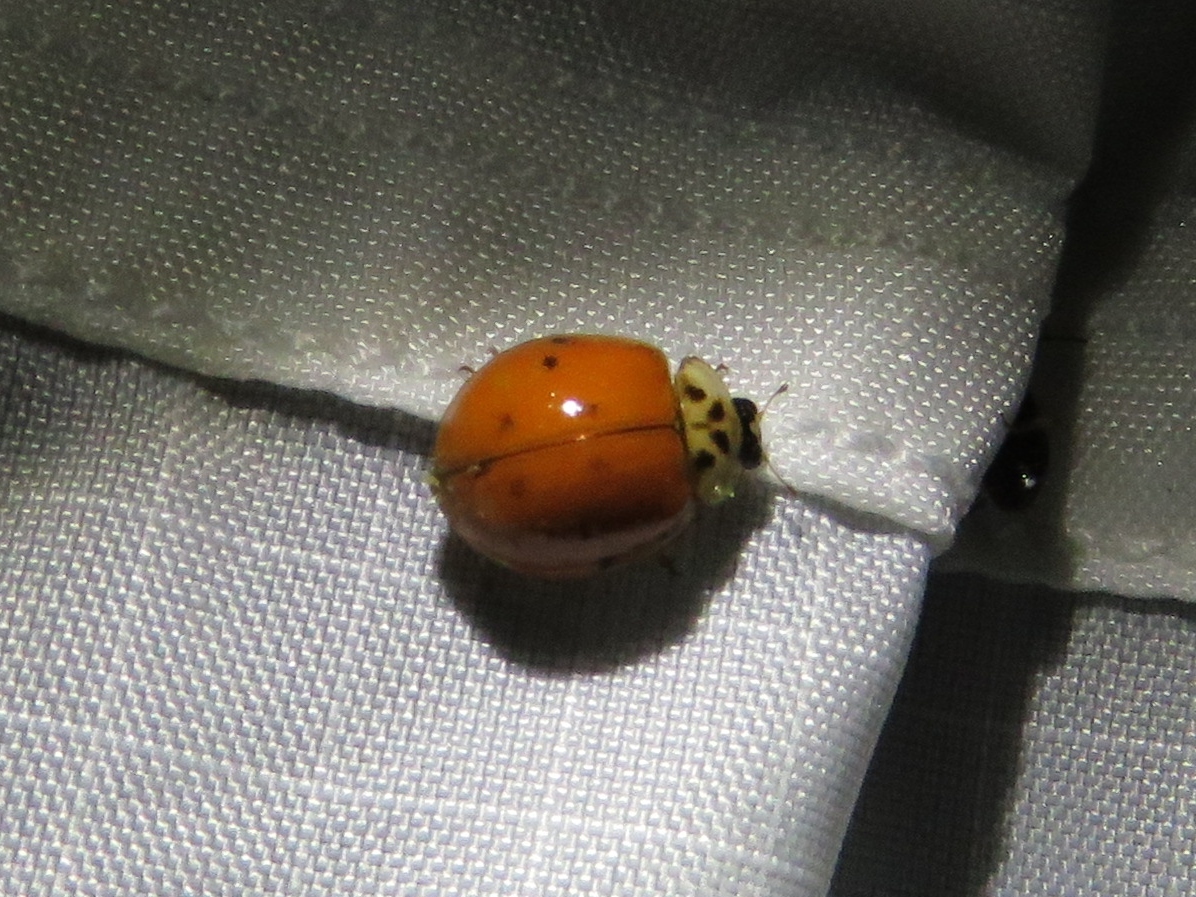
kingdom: Animalia
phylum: Arthropoda
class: Insecta
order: Coleoptera
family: Coccinellidae
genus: Harmonia
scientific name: Harmonia axyridis
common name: Harlequin ladybird
